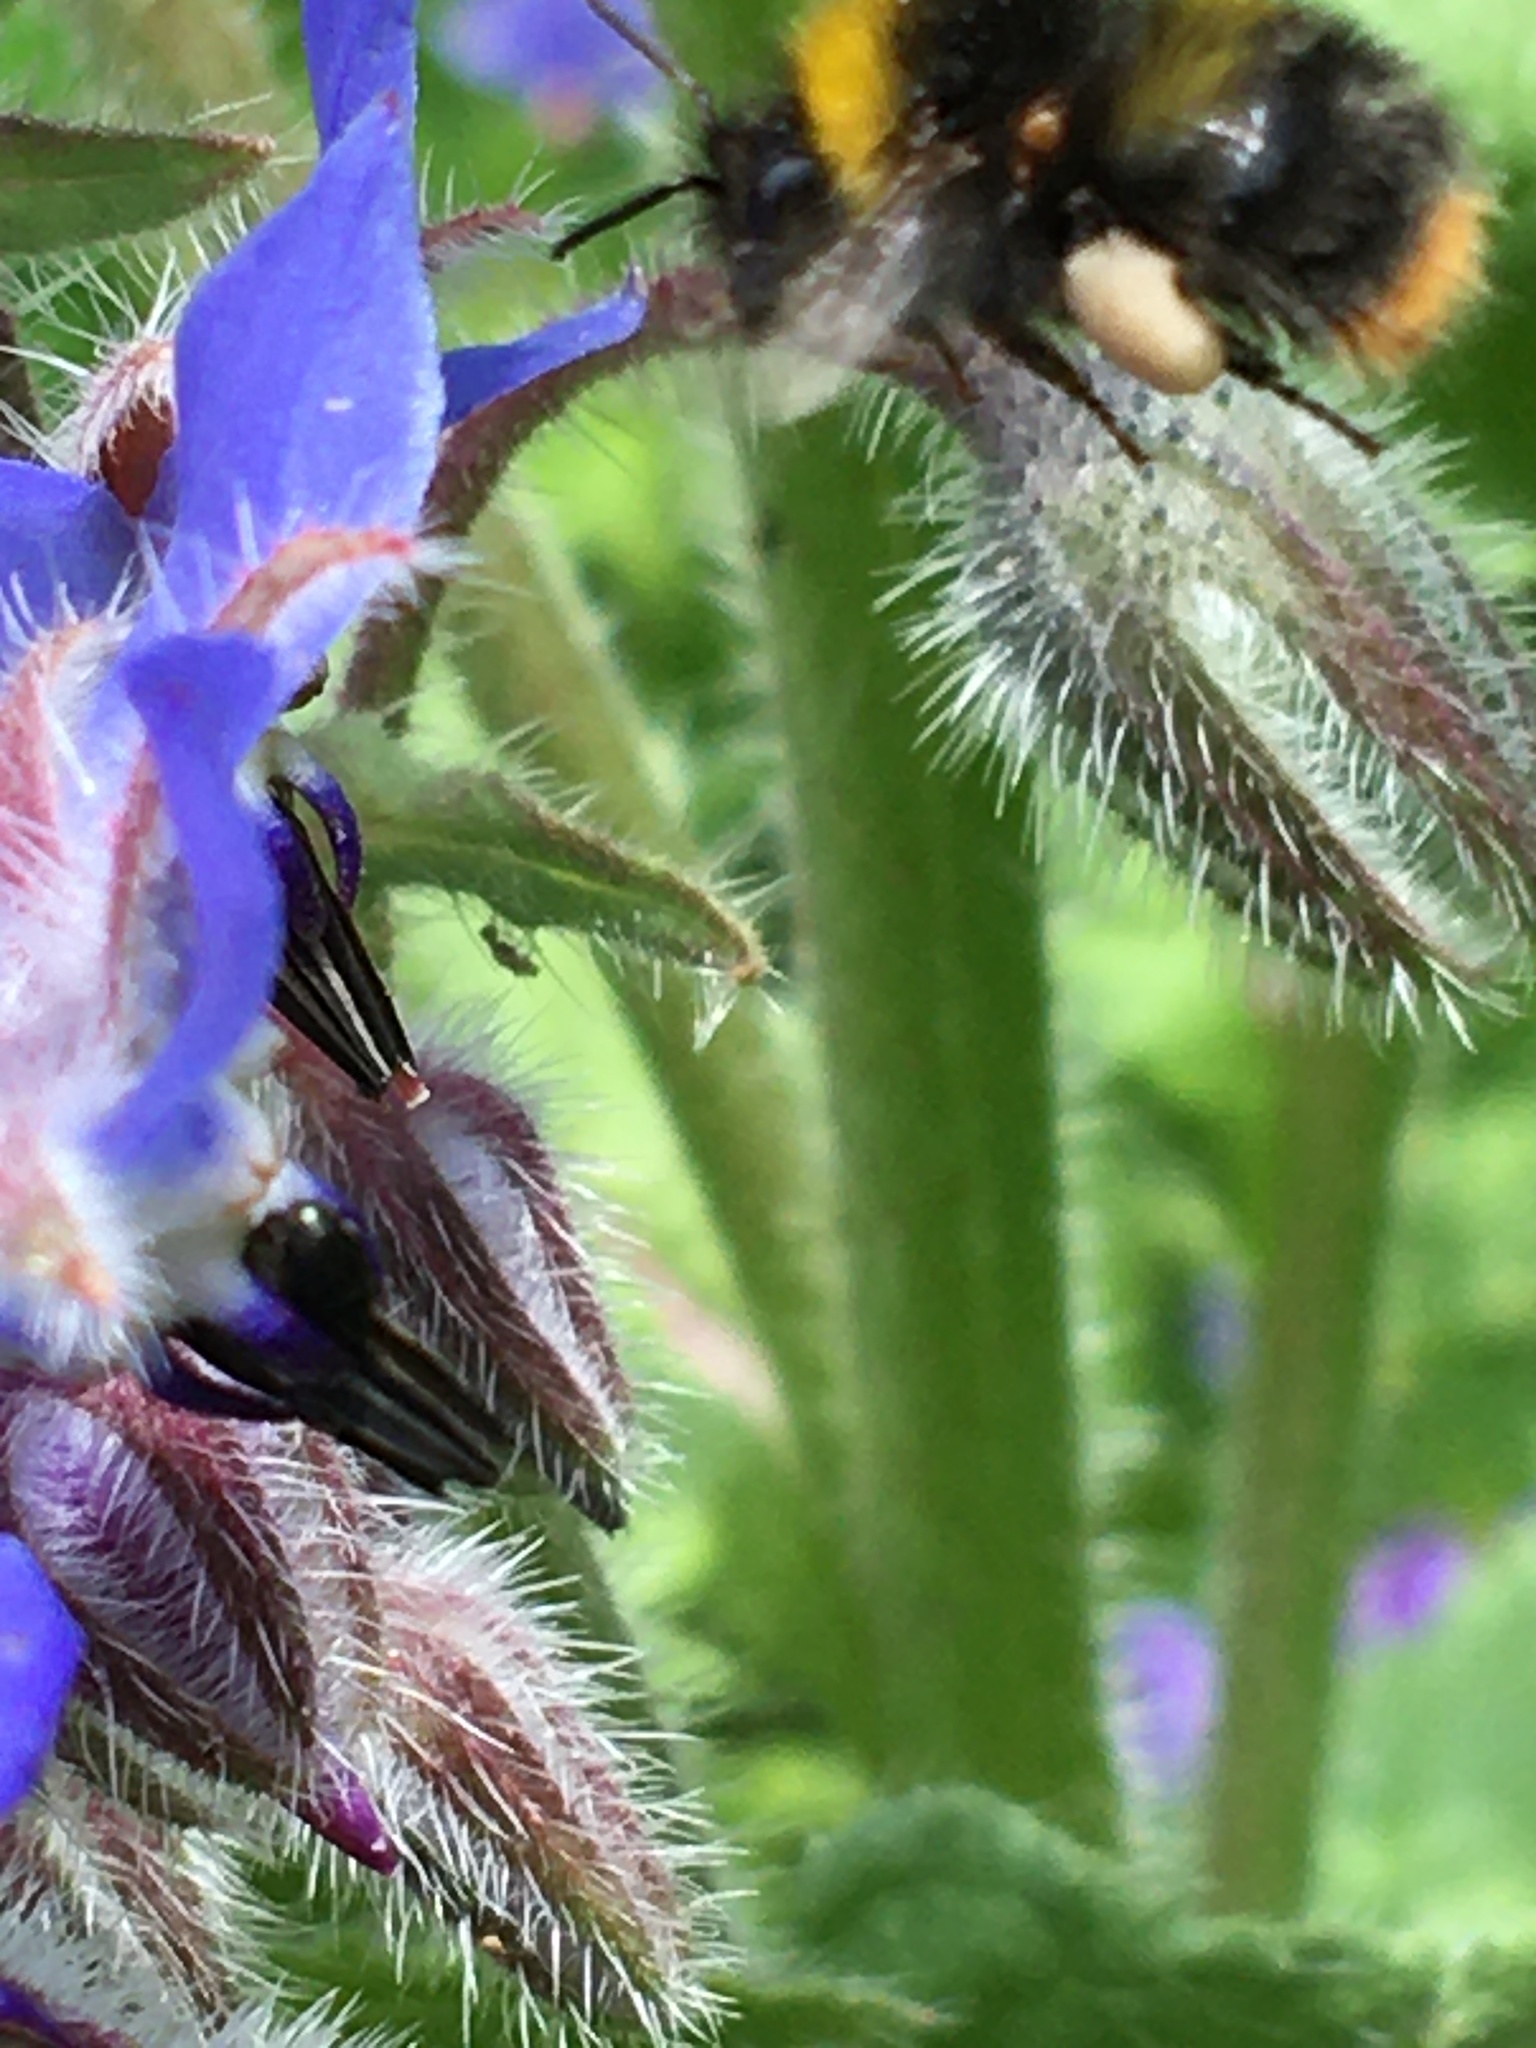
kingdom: Animalia
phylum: Arthropoda
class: Insecta
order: Hymenoptera
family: Apidae
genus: Bombus
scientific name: Bombus pratorum
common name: Early humble-bee
